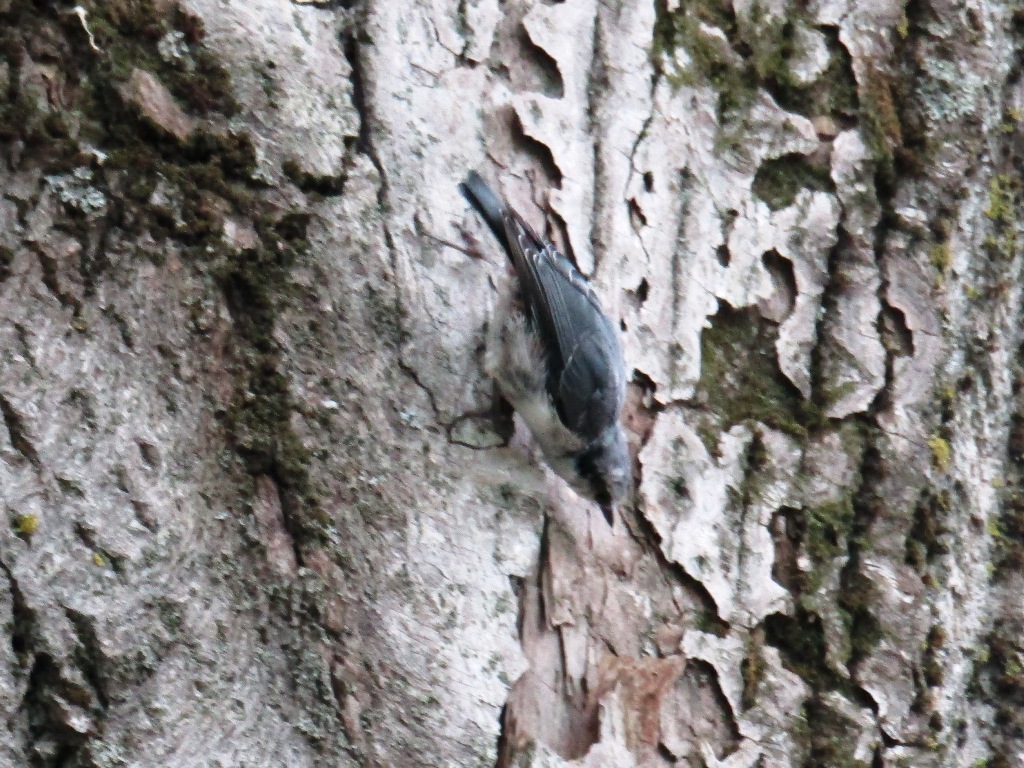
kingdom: Animalia
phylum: Chordata
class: Aves
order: Passeriformes
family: Sittidae
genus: Sitta
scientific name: Sitta europaea
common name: Eurasian nuthatch
